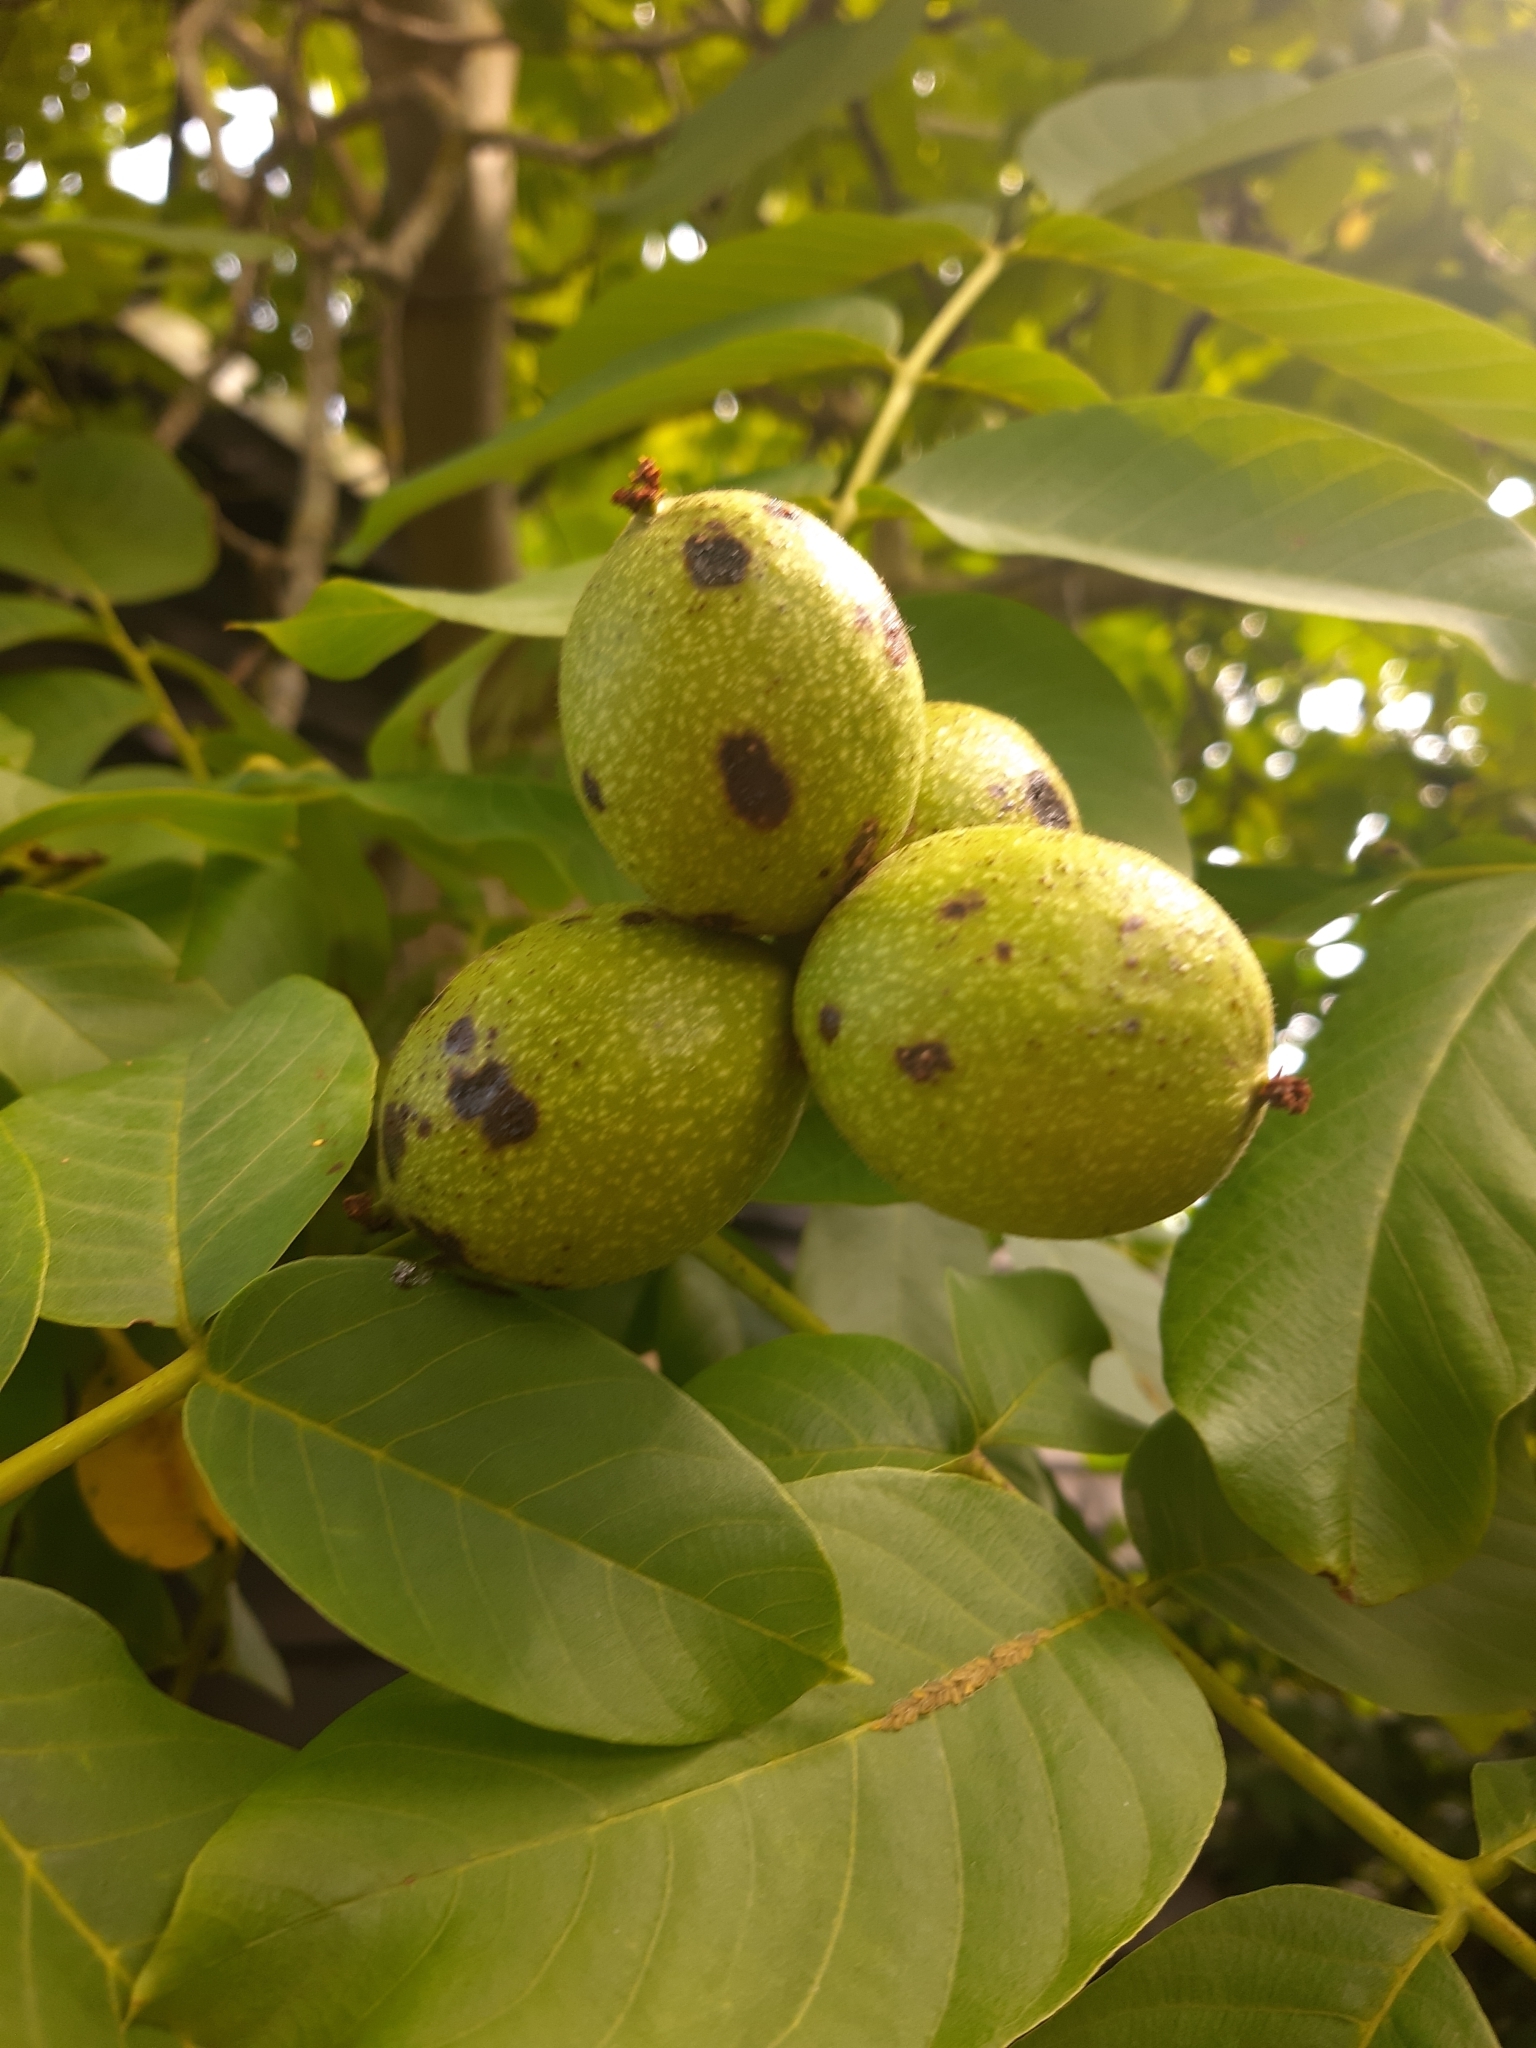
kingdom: Plantae
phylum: Tracheophyta
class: Magnoliopsida
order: Fagales
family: Juglandaceae
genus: Juglans
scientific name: Juglans regia
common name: Walnut
